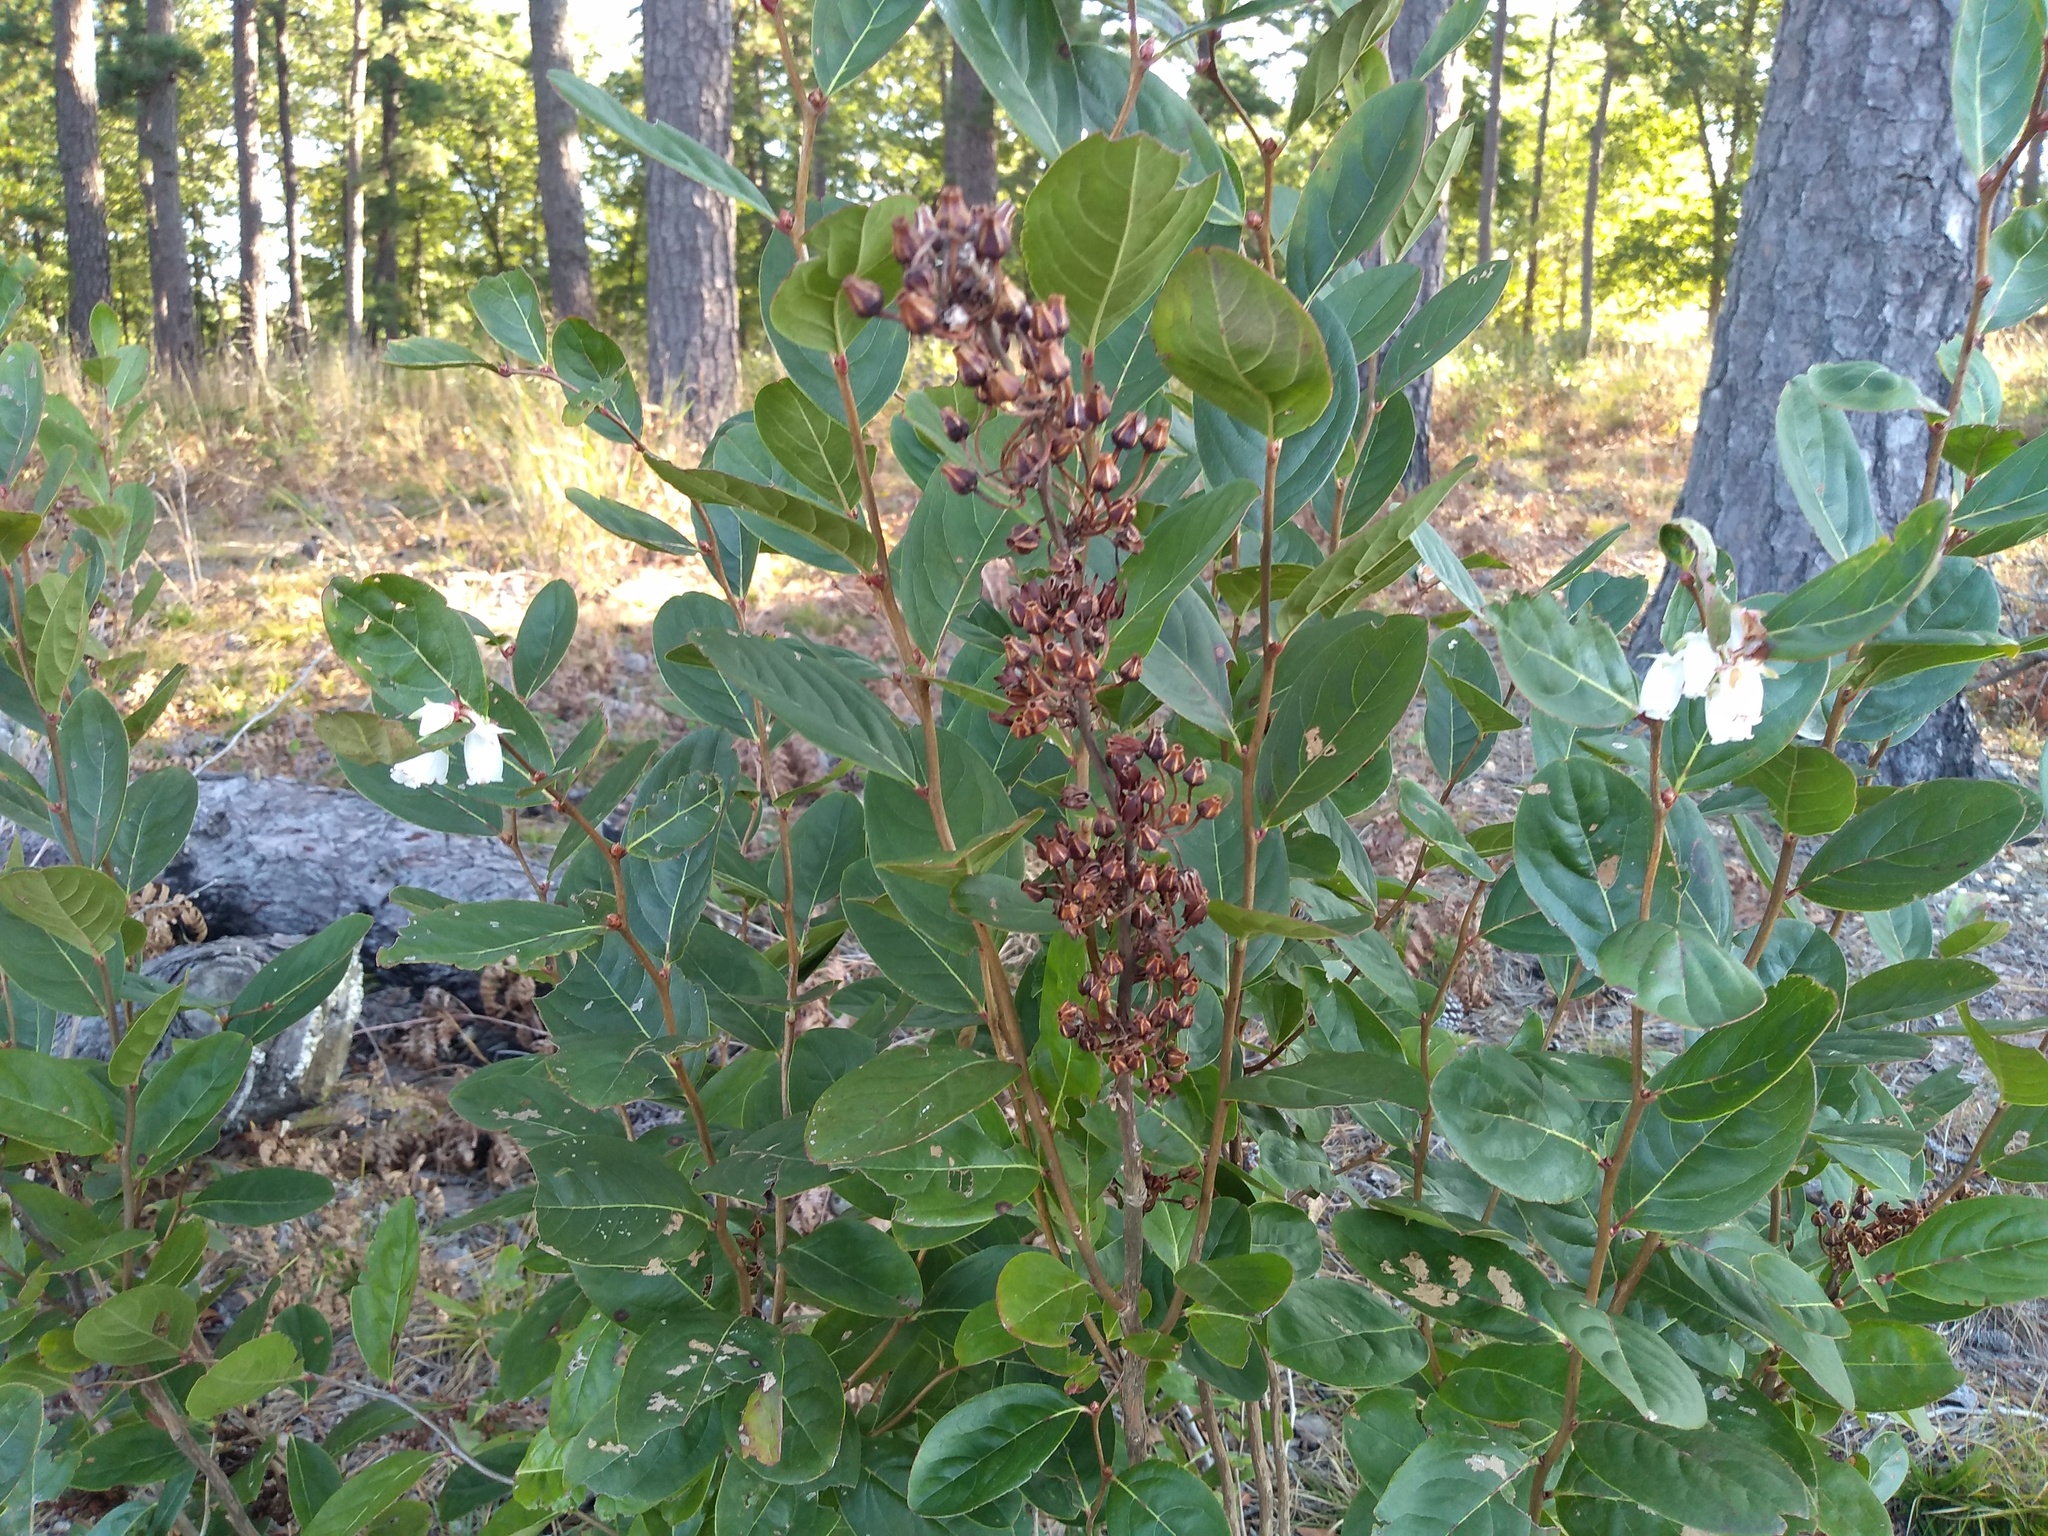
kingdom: Plantae
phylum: Tracheophyta
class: Magnoliopsida
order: Ericales
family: Ericaceae
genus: Lyonia
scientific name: Lyonia mariana
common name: Staggerbush
